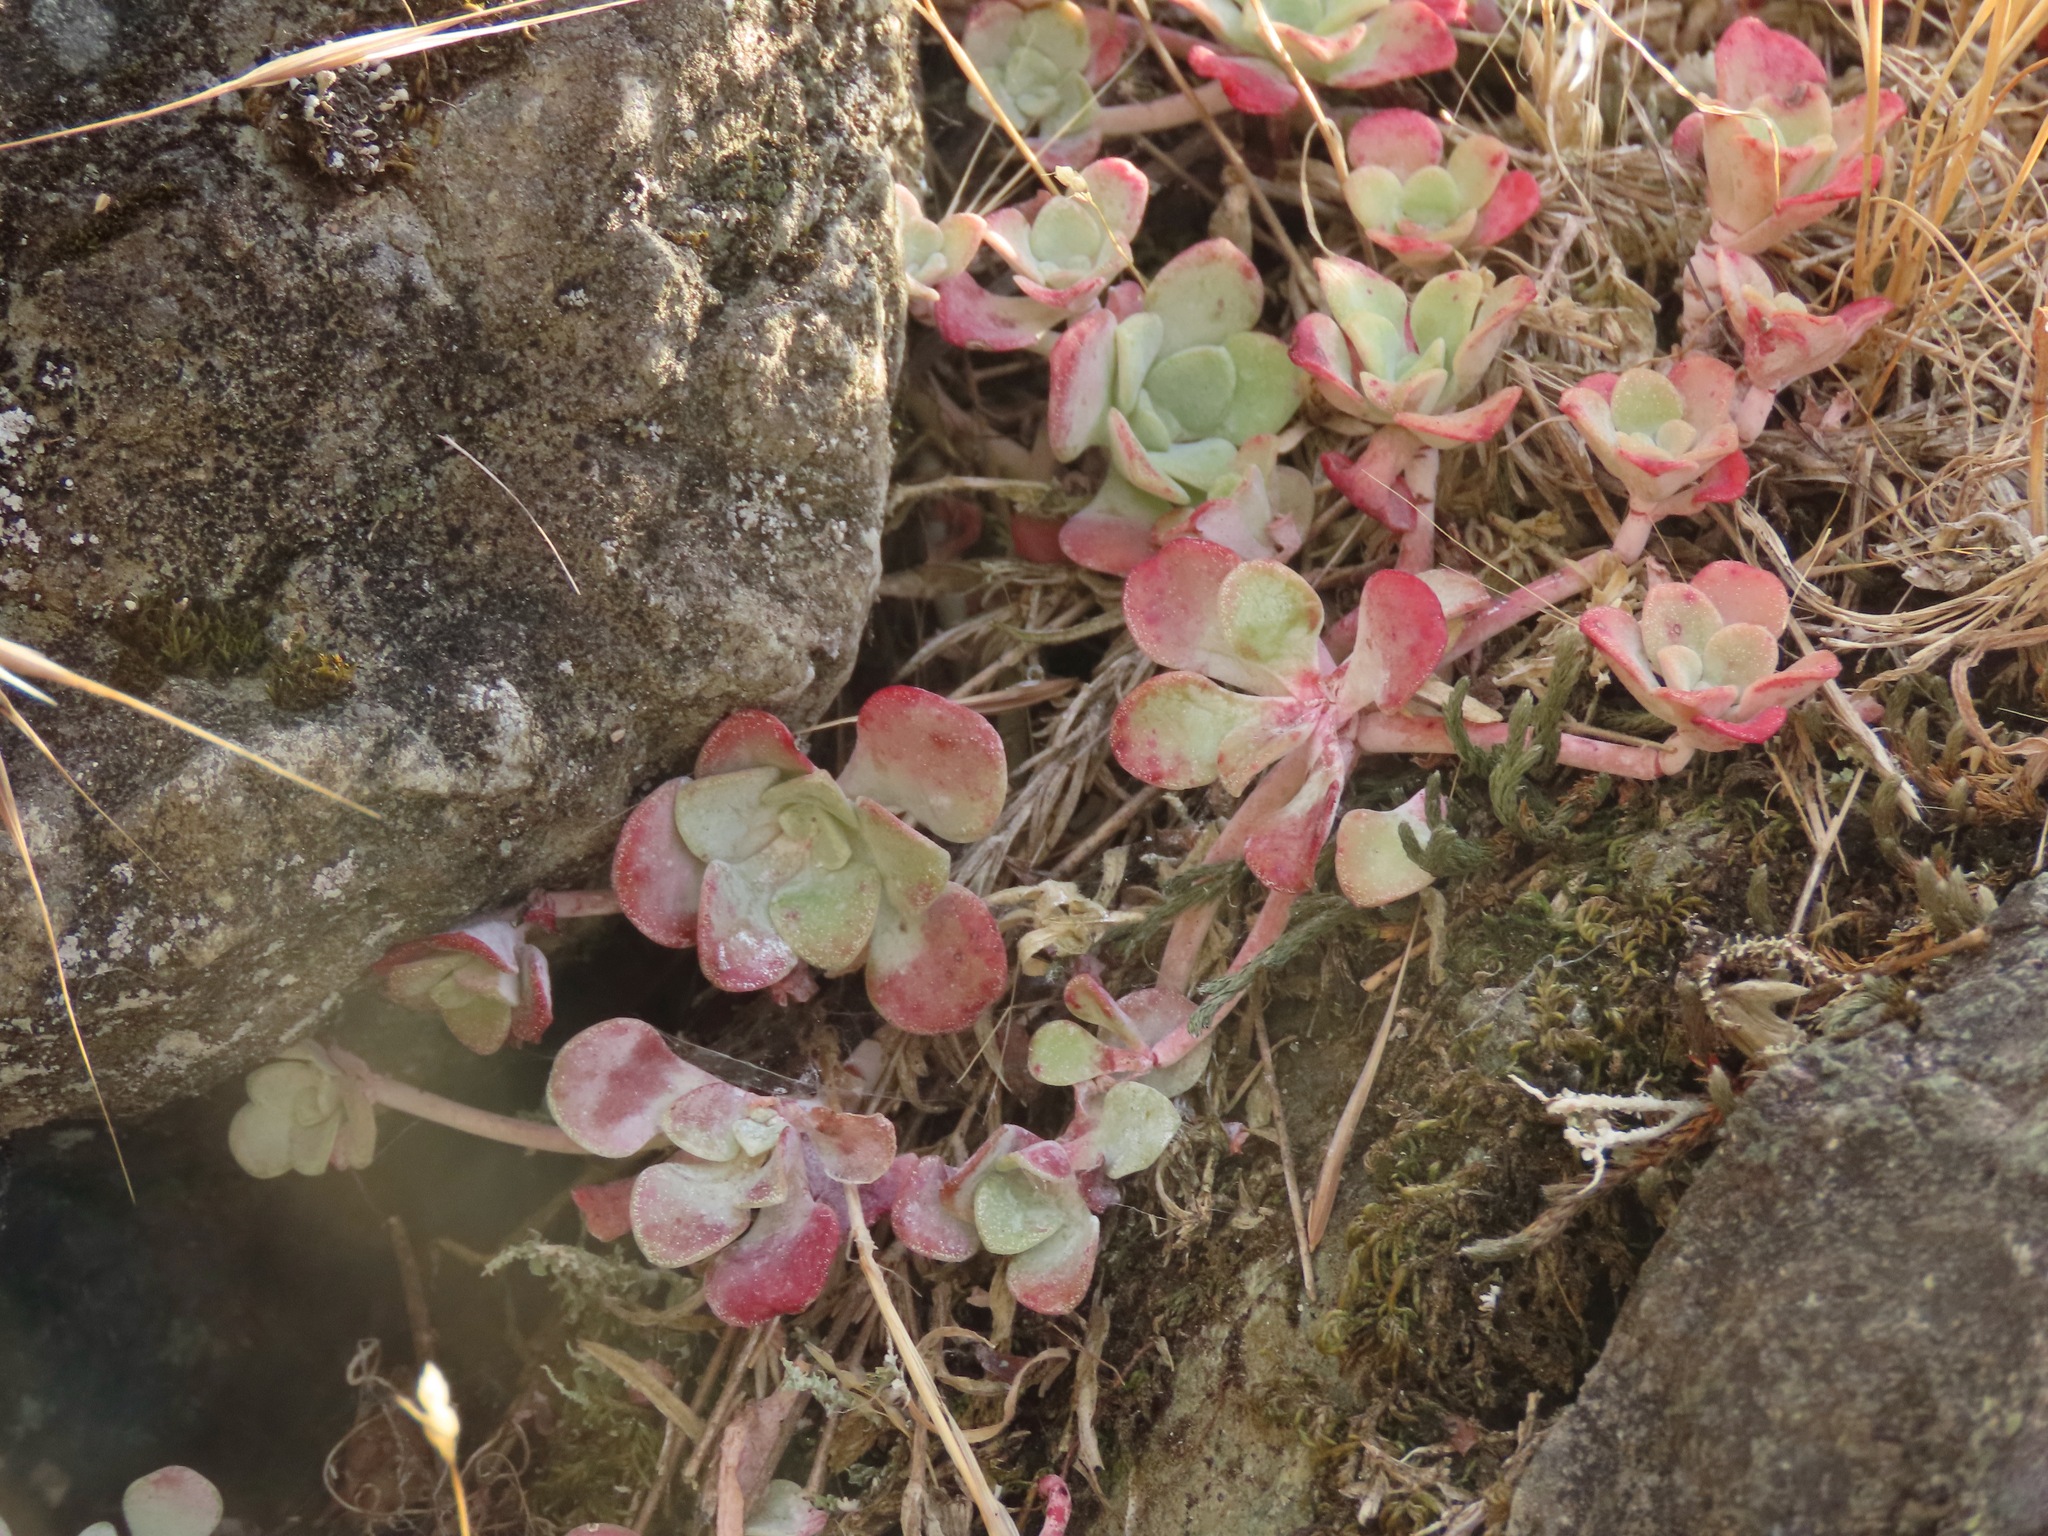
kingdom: Plantae
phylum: Tracheophyta
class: Magnoliopsida
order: Saxifragales
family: Crassulaceae
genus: Sedum
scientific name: Sedum spathulifolium
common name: Colorado stonecrop
